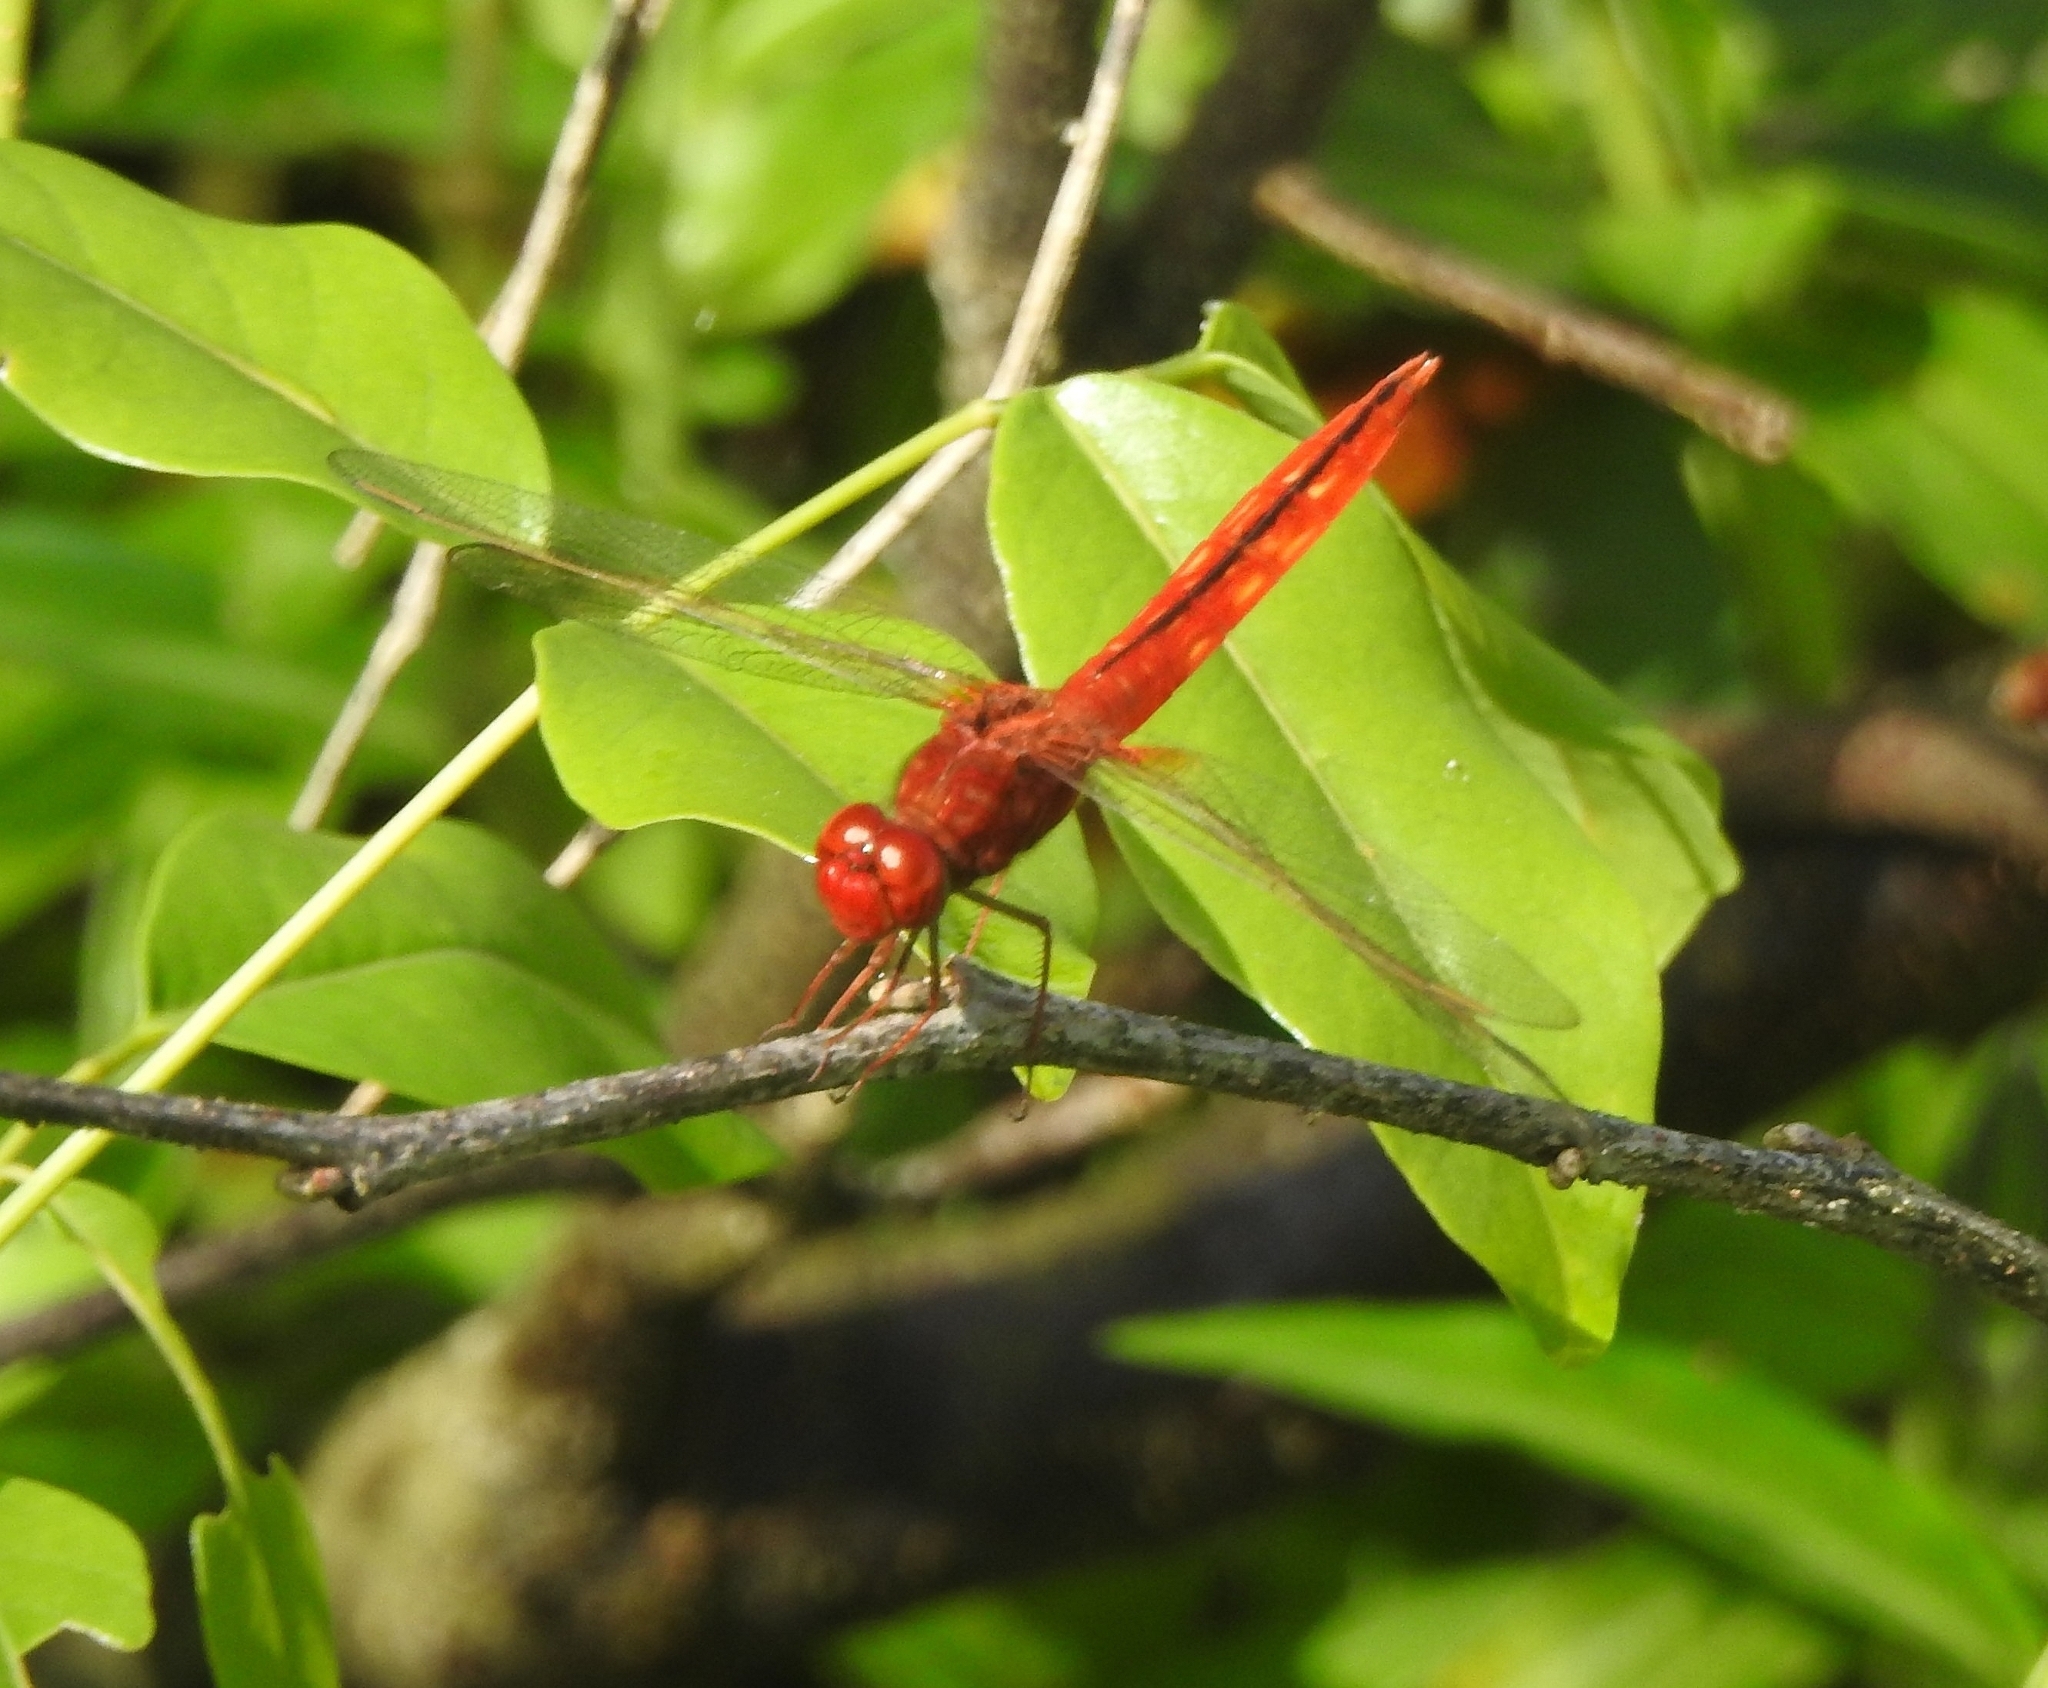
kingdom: Animalia
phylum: Arthropoda
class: Insecta
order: Odonata
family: Libellulidae
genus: Crocothemis
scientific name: Crocothemis servilia
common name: Scarlet skimmer
